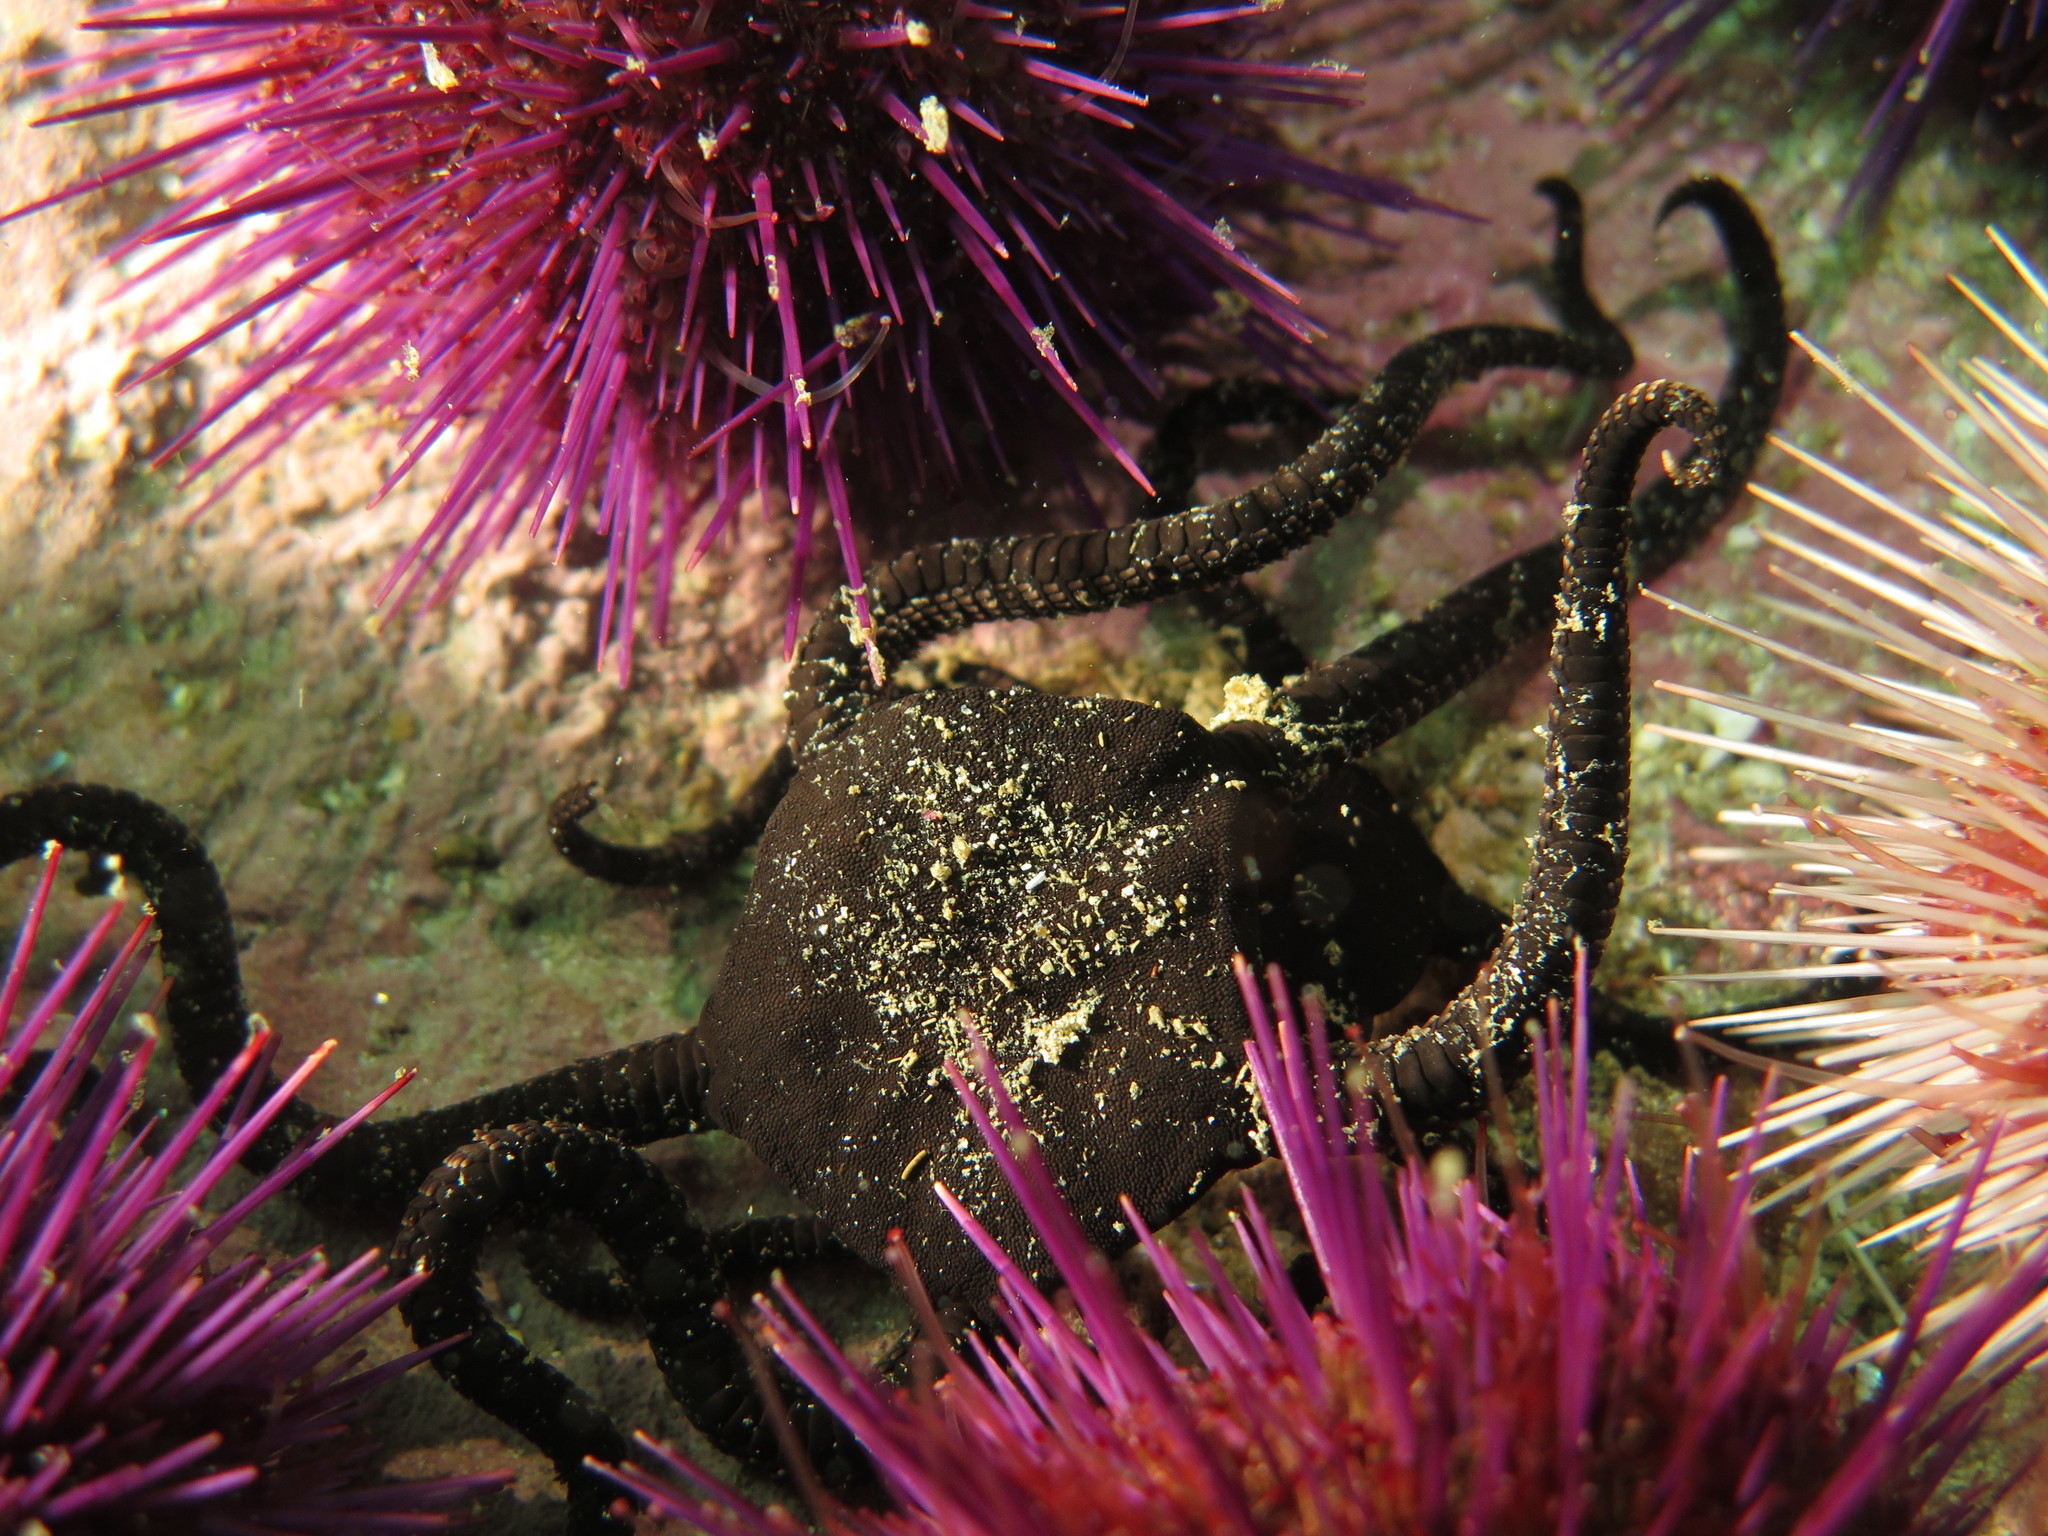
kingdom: Animalia
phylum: Echinodermata
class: Ophiuroidea
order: Ophiacanthida
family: Ophiodermatidae
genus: Ophioderma
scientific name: Ophioderma wahlbergii
